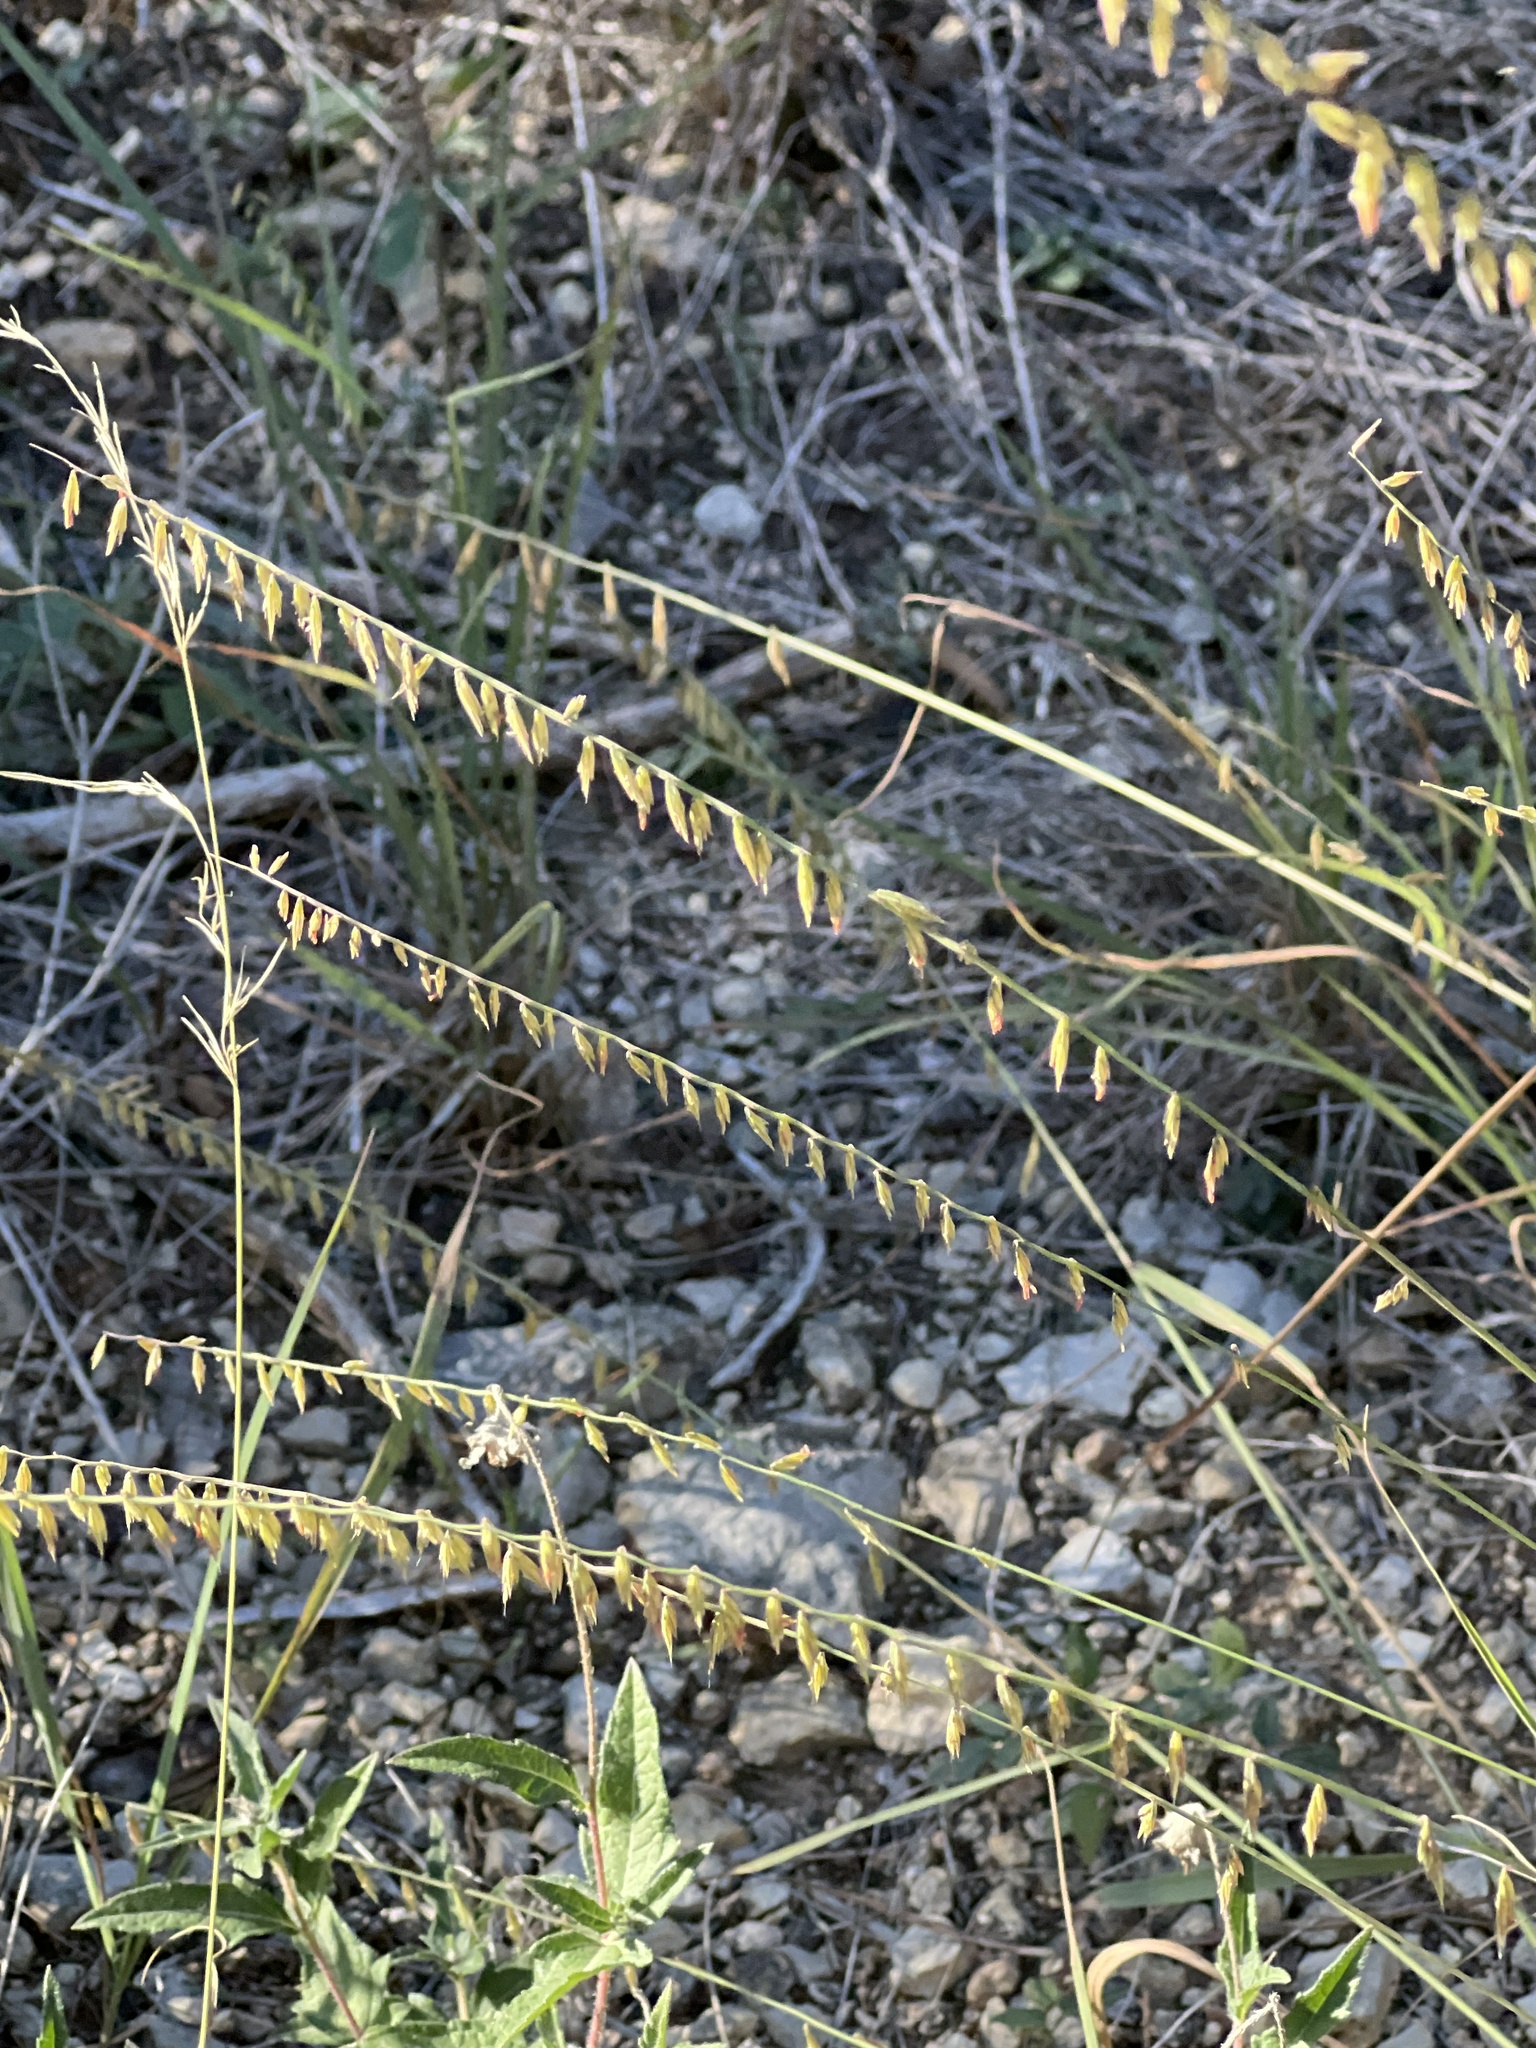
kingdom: Plantae
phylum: Tracheophyta
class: Liliopsida
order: Poales
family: Poaceae
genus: Bouteloua
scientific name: Bouteloua curtipendula
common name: Side-oats grama
